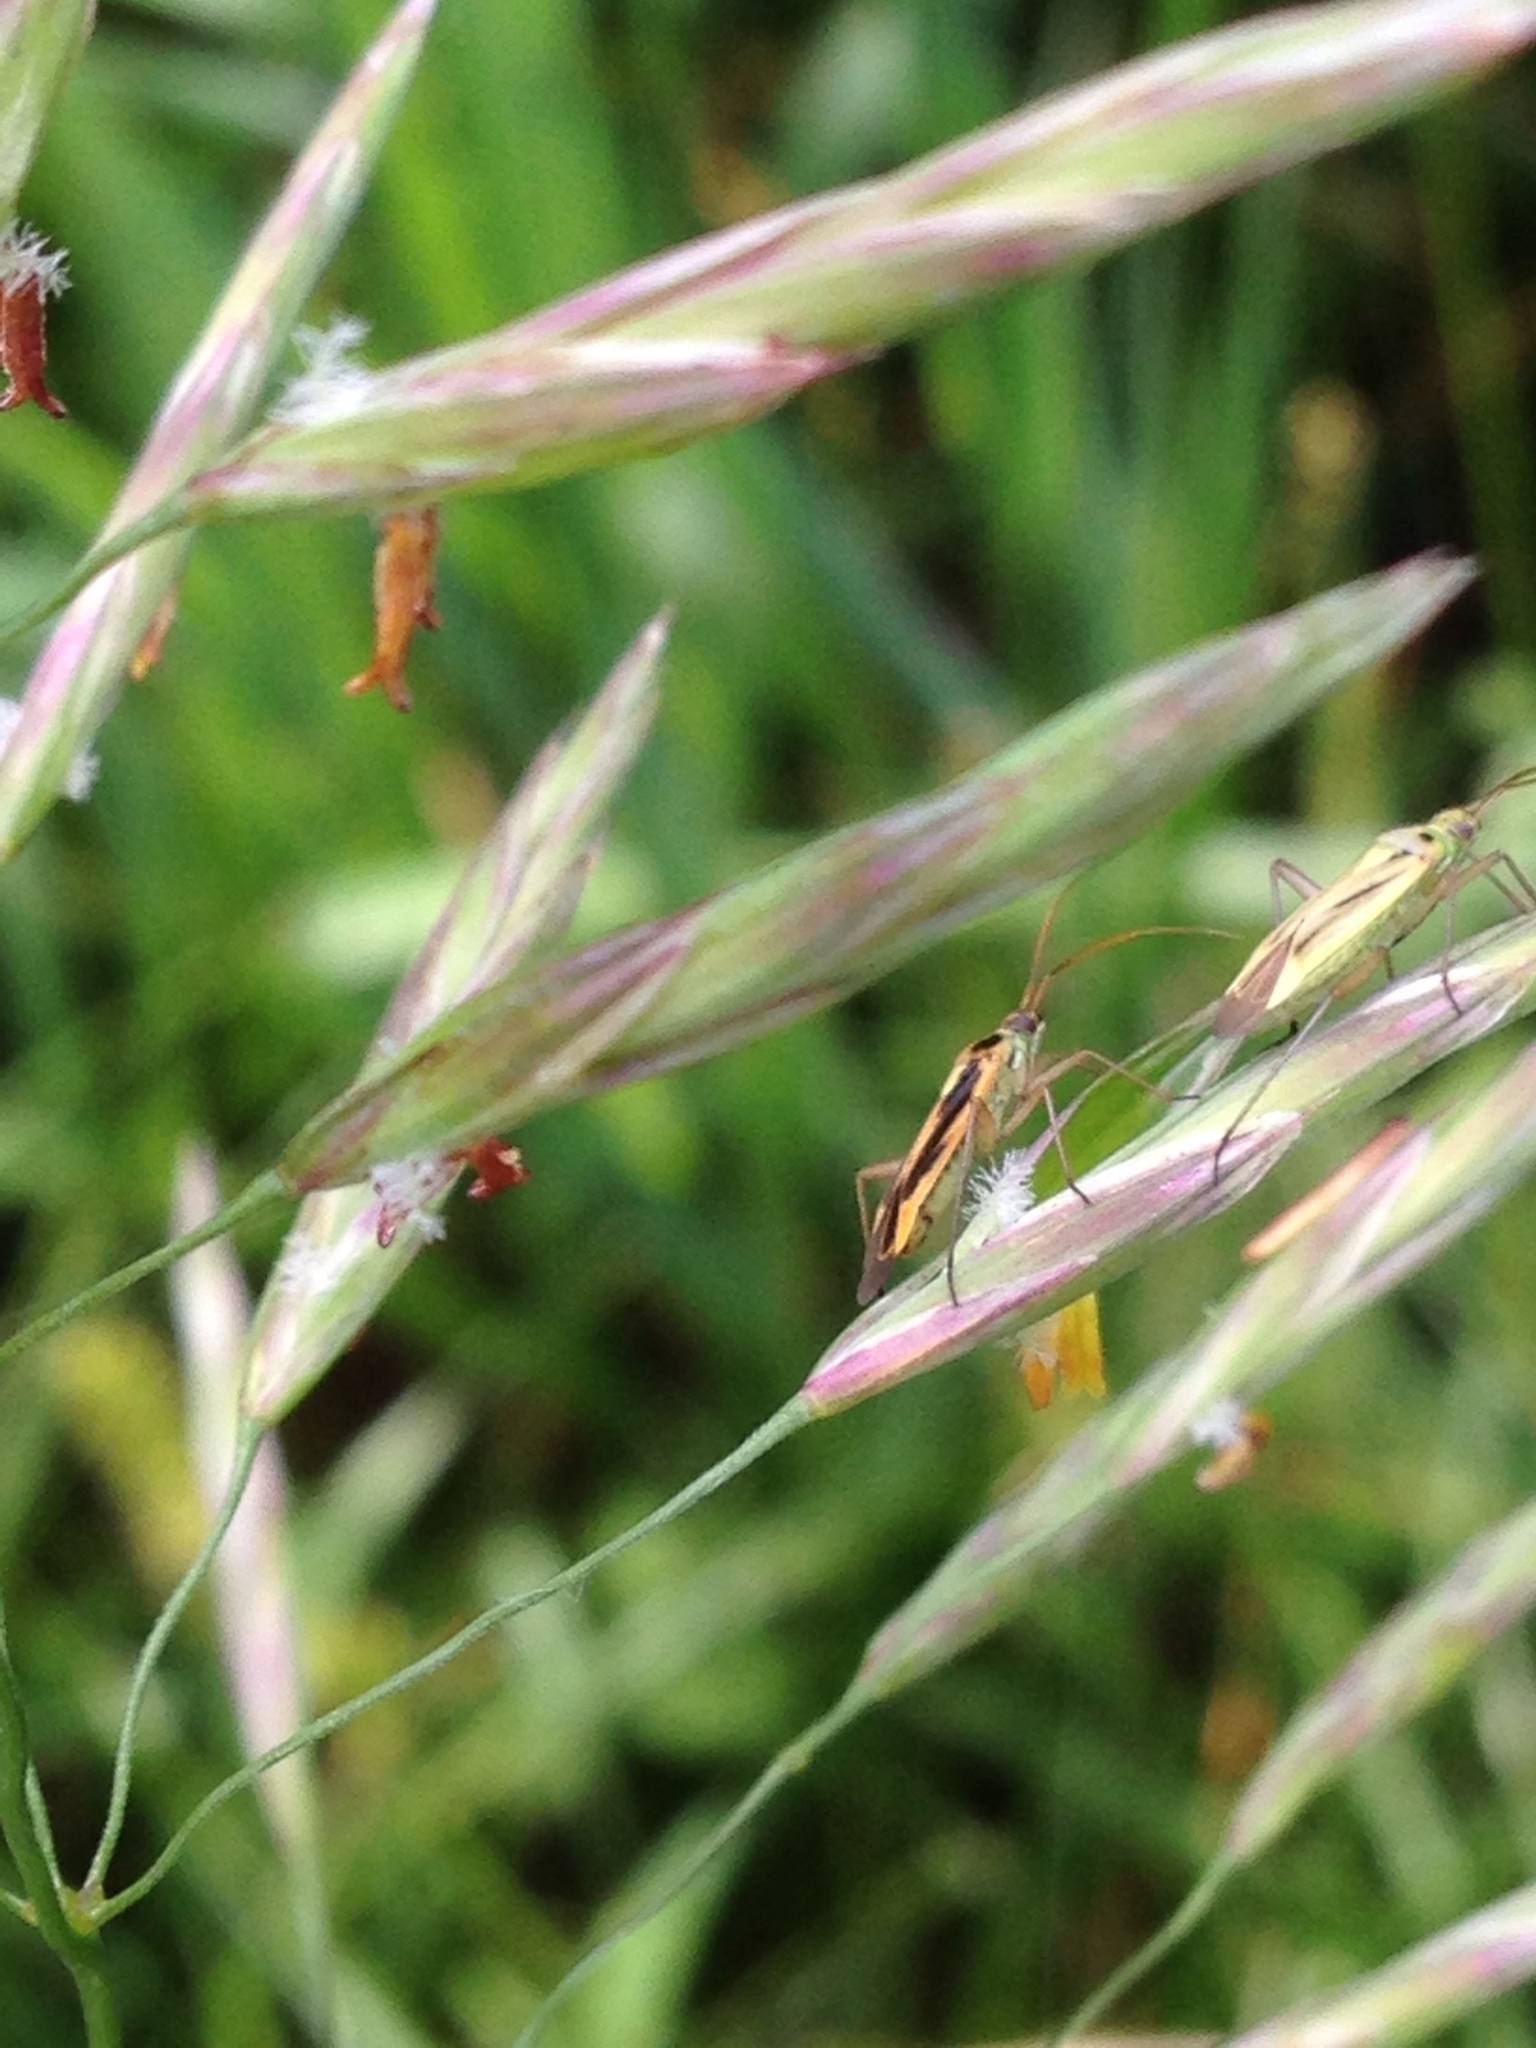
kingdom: Animalia
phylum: Arthropoda
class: Insecta
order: Hemiptera
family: Miridae
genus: Stenotus
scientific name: Stenotus binotatus
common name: Plant bug
